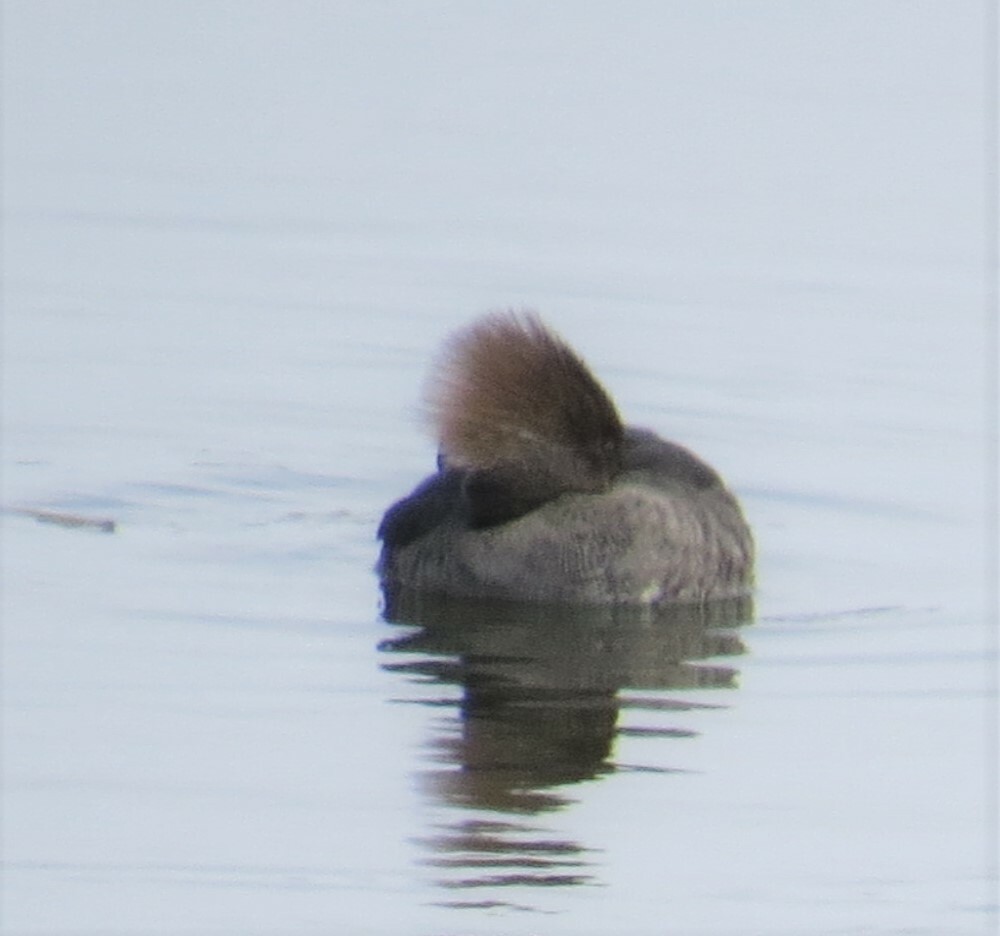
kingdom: Animalia
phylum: Chordata
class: Aves
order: Anseriformes
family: Anatidae
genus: Lophodytes
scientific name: Lophodytes cucullatus
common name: Hooded merganser
